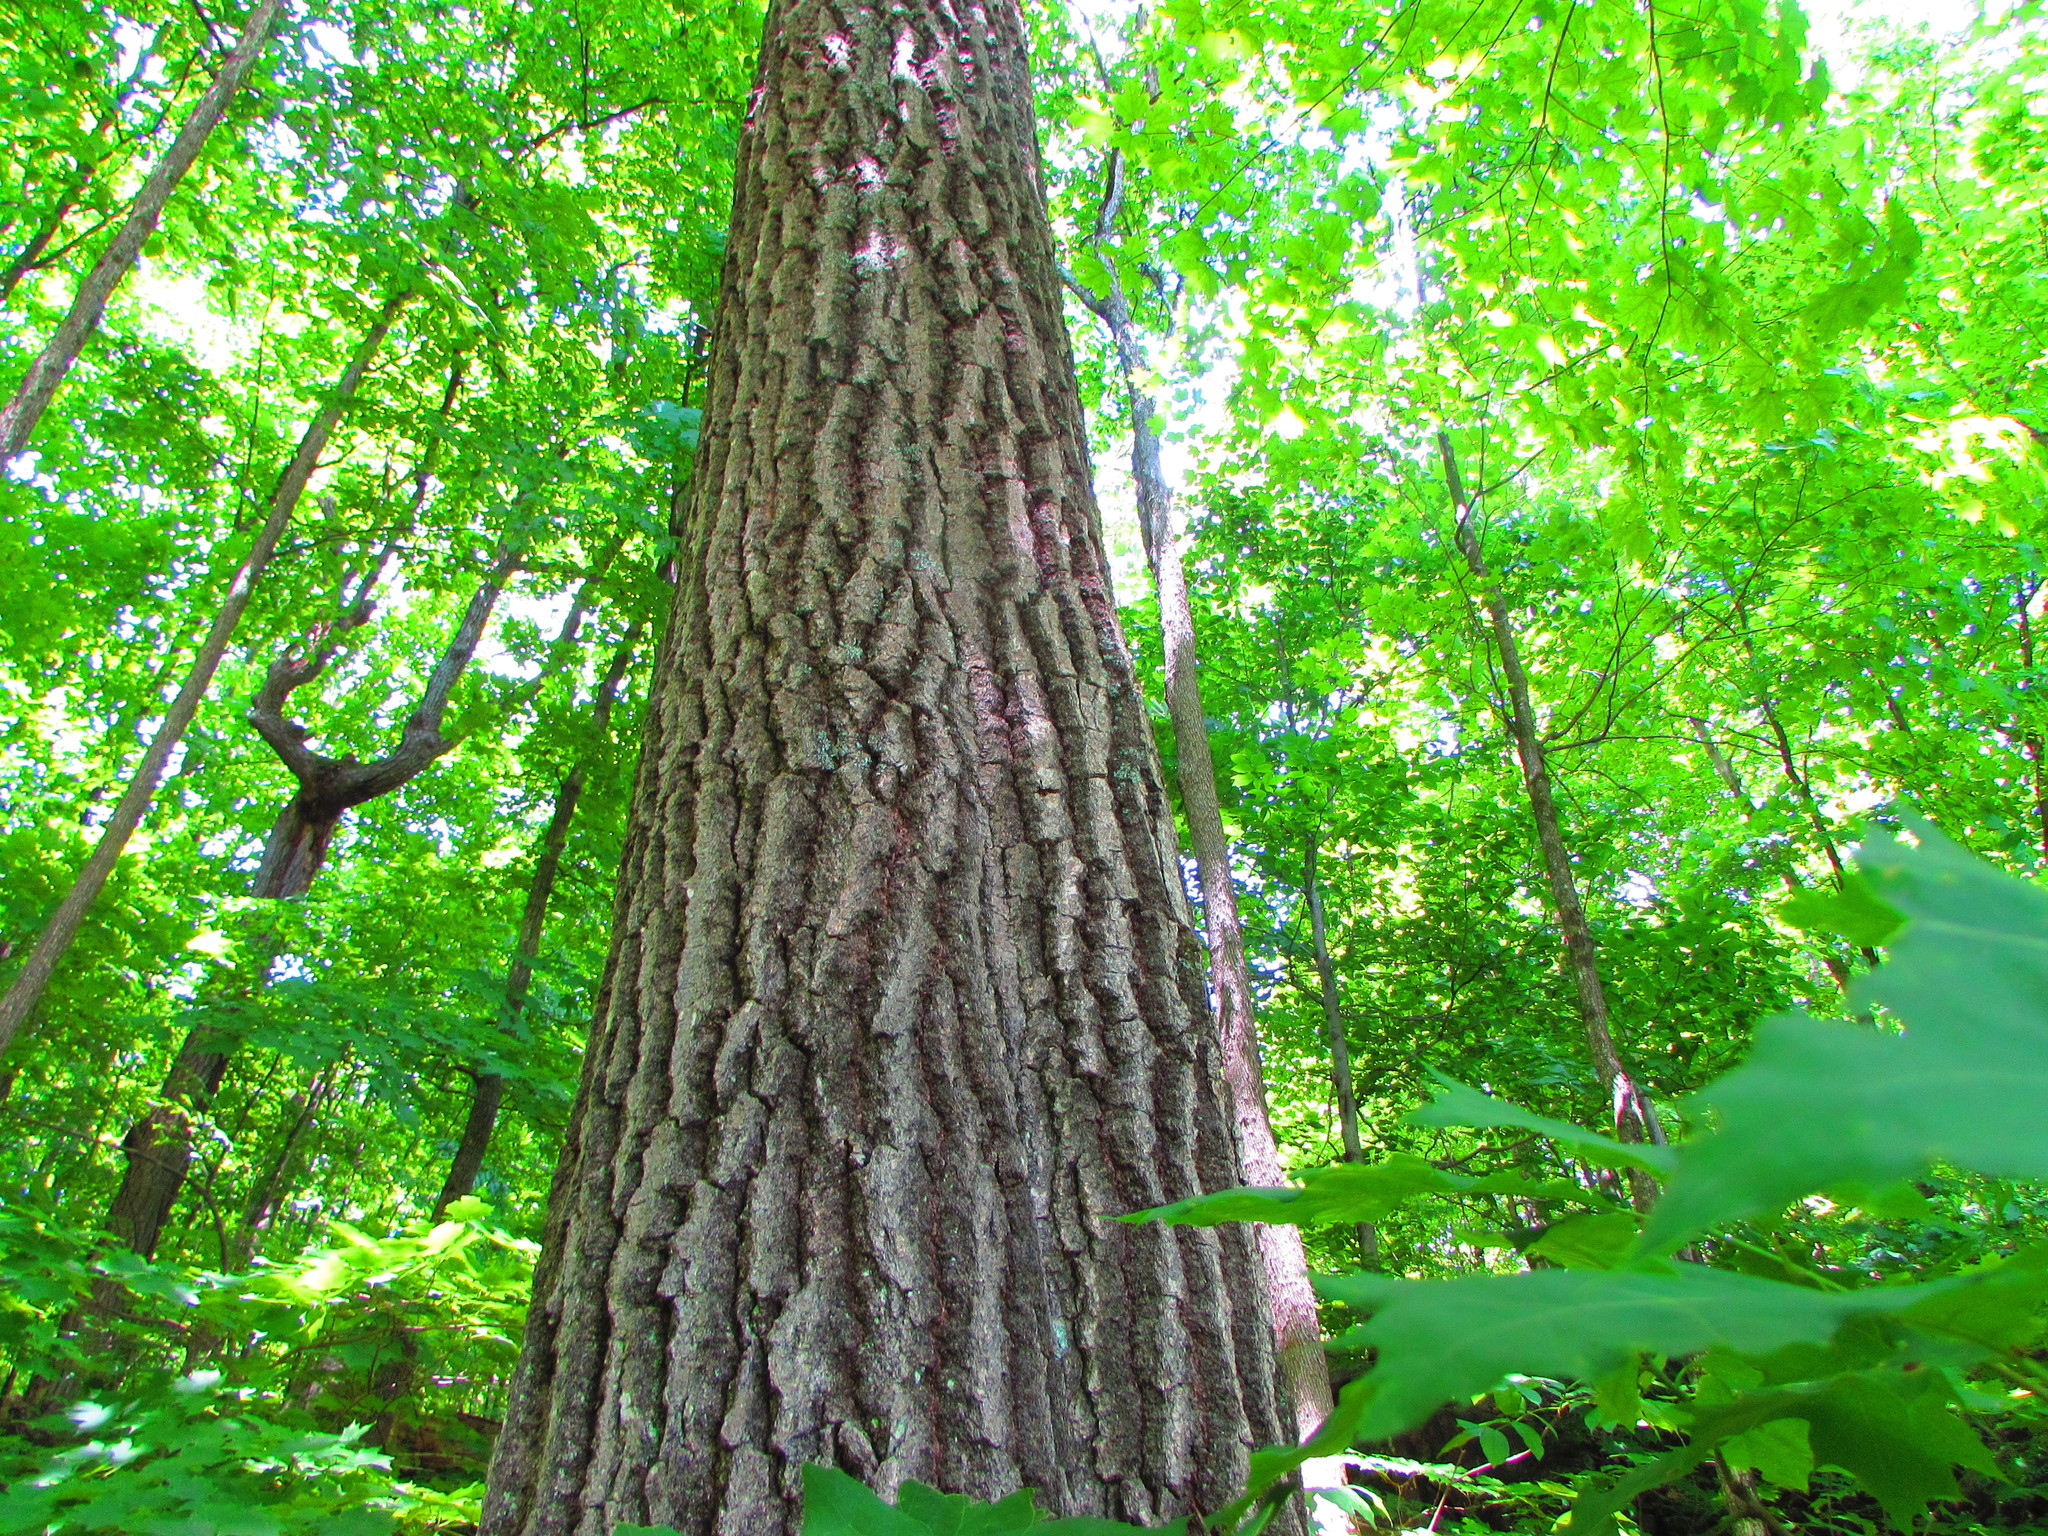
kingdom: Plantae
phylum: Tracheophyta
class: Magnoliopsida
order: Fagales
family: Fagaceae
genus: Quercus
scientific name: Quercus rubra
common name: Red oak
